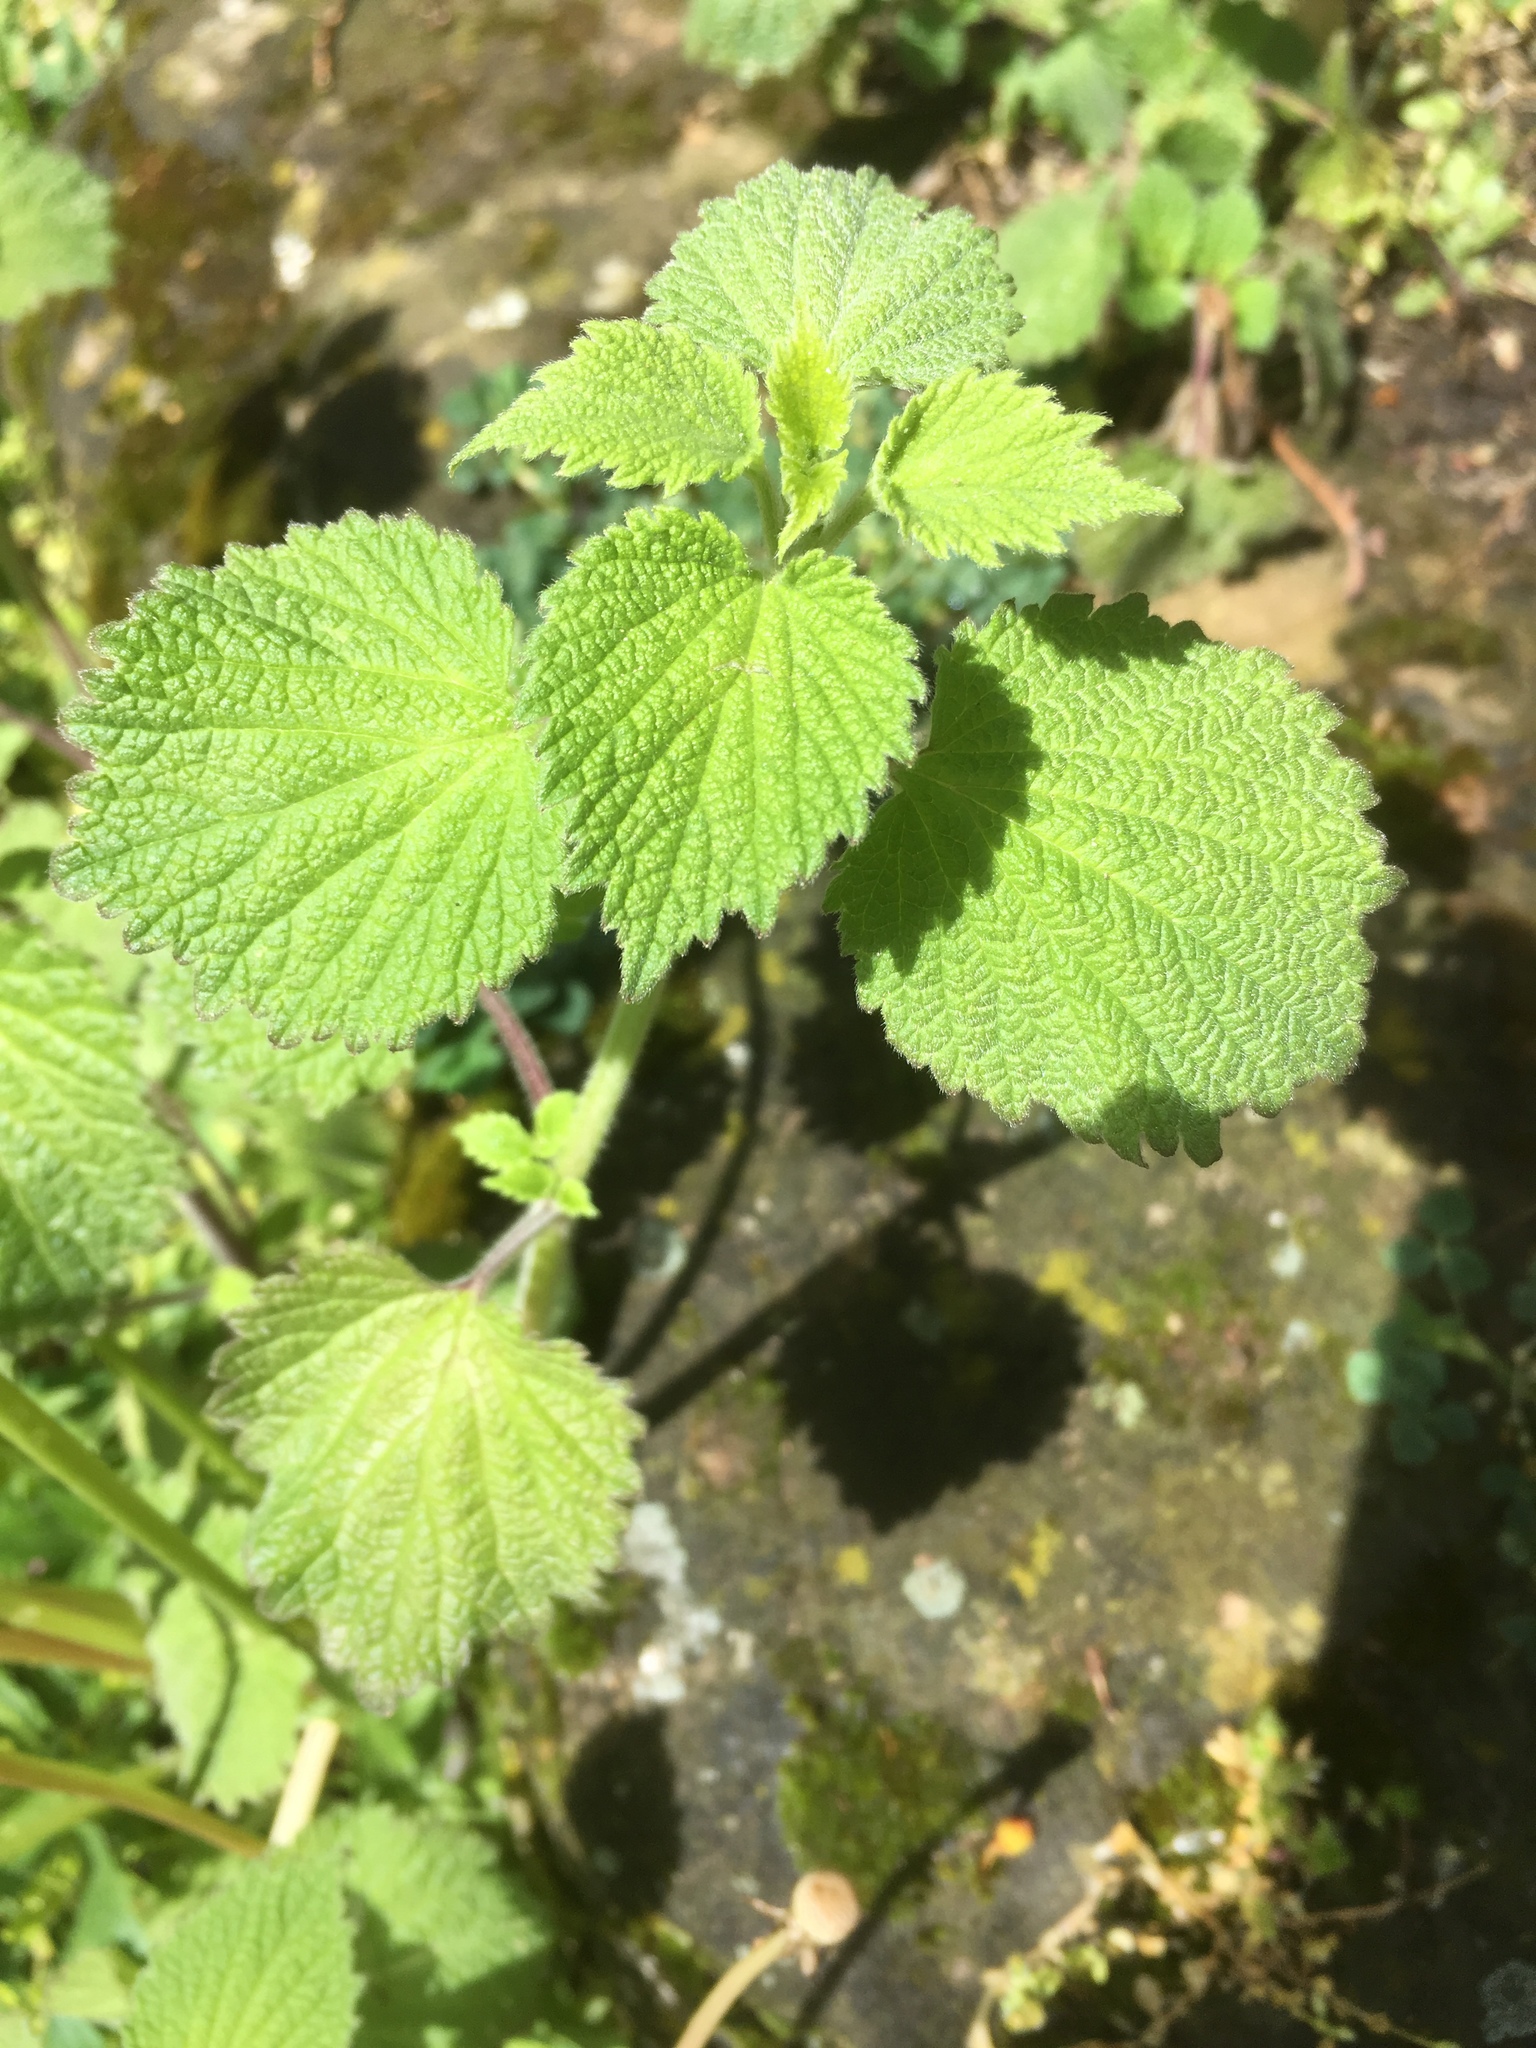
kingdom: Plantae
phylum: Tracheophyta
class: Magnoliopsida
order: Lamiales
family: Lamiaceae
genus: Nepeta
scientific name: Nepeta cataria
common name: Catnip
